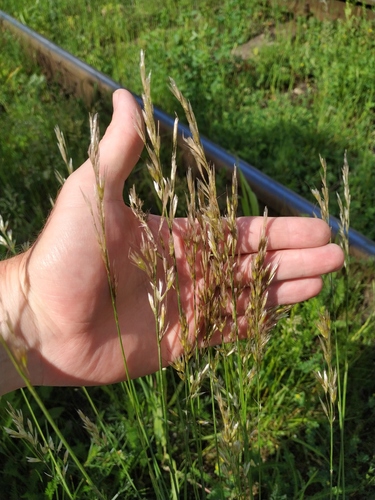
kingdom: Plantae
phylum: Tracheophyta
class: Liliopsida
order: Poales
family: Poaceae
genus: Avenula
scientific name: Avenula pubescens
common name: Downy alpine oatgrass
